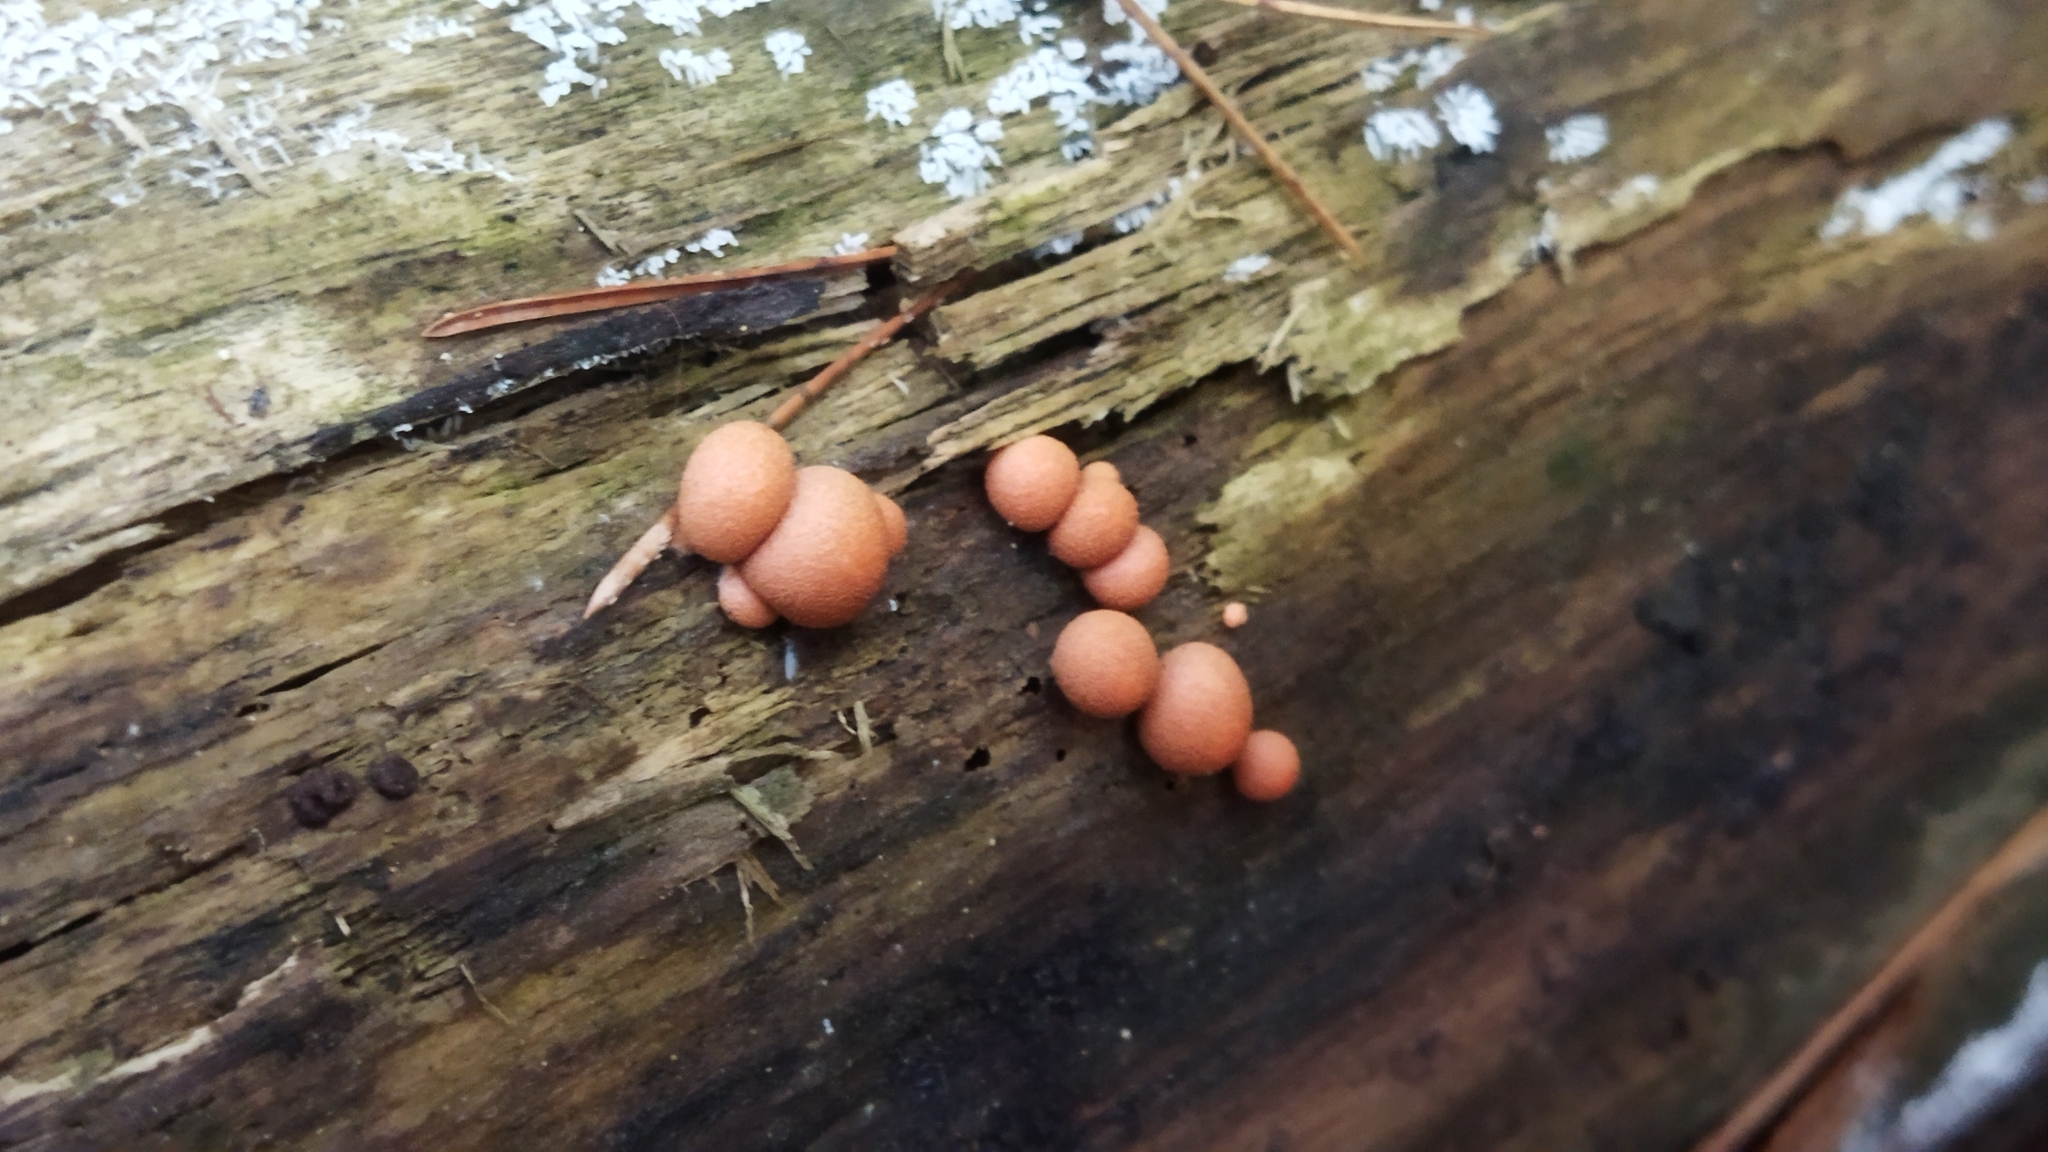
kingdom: Protozoa
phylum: Mycetozoa
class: Myxomycetes
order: Cribrariales
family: Tubiferaceae
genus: Lycogala
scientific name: Lycogala epidendrum
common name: Wolf's milk
